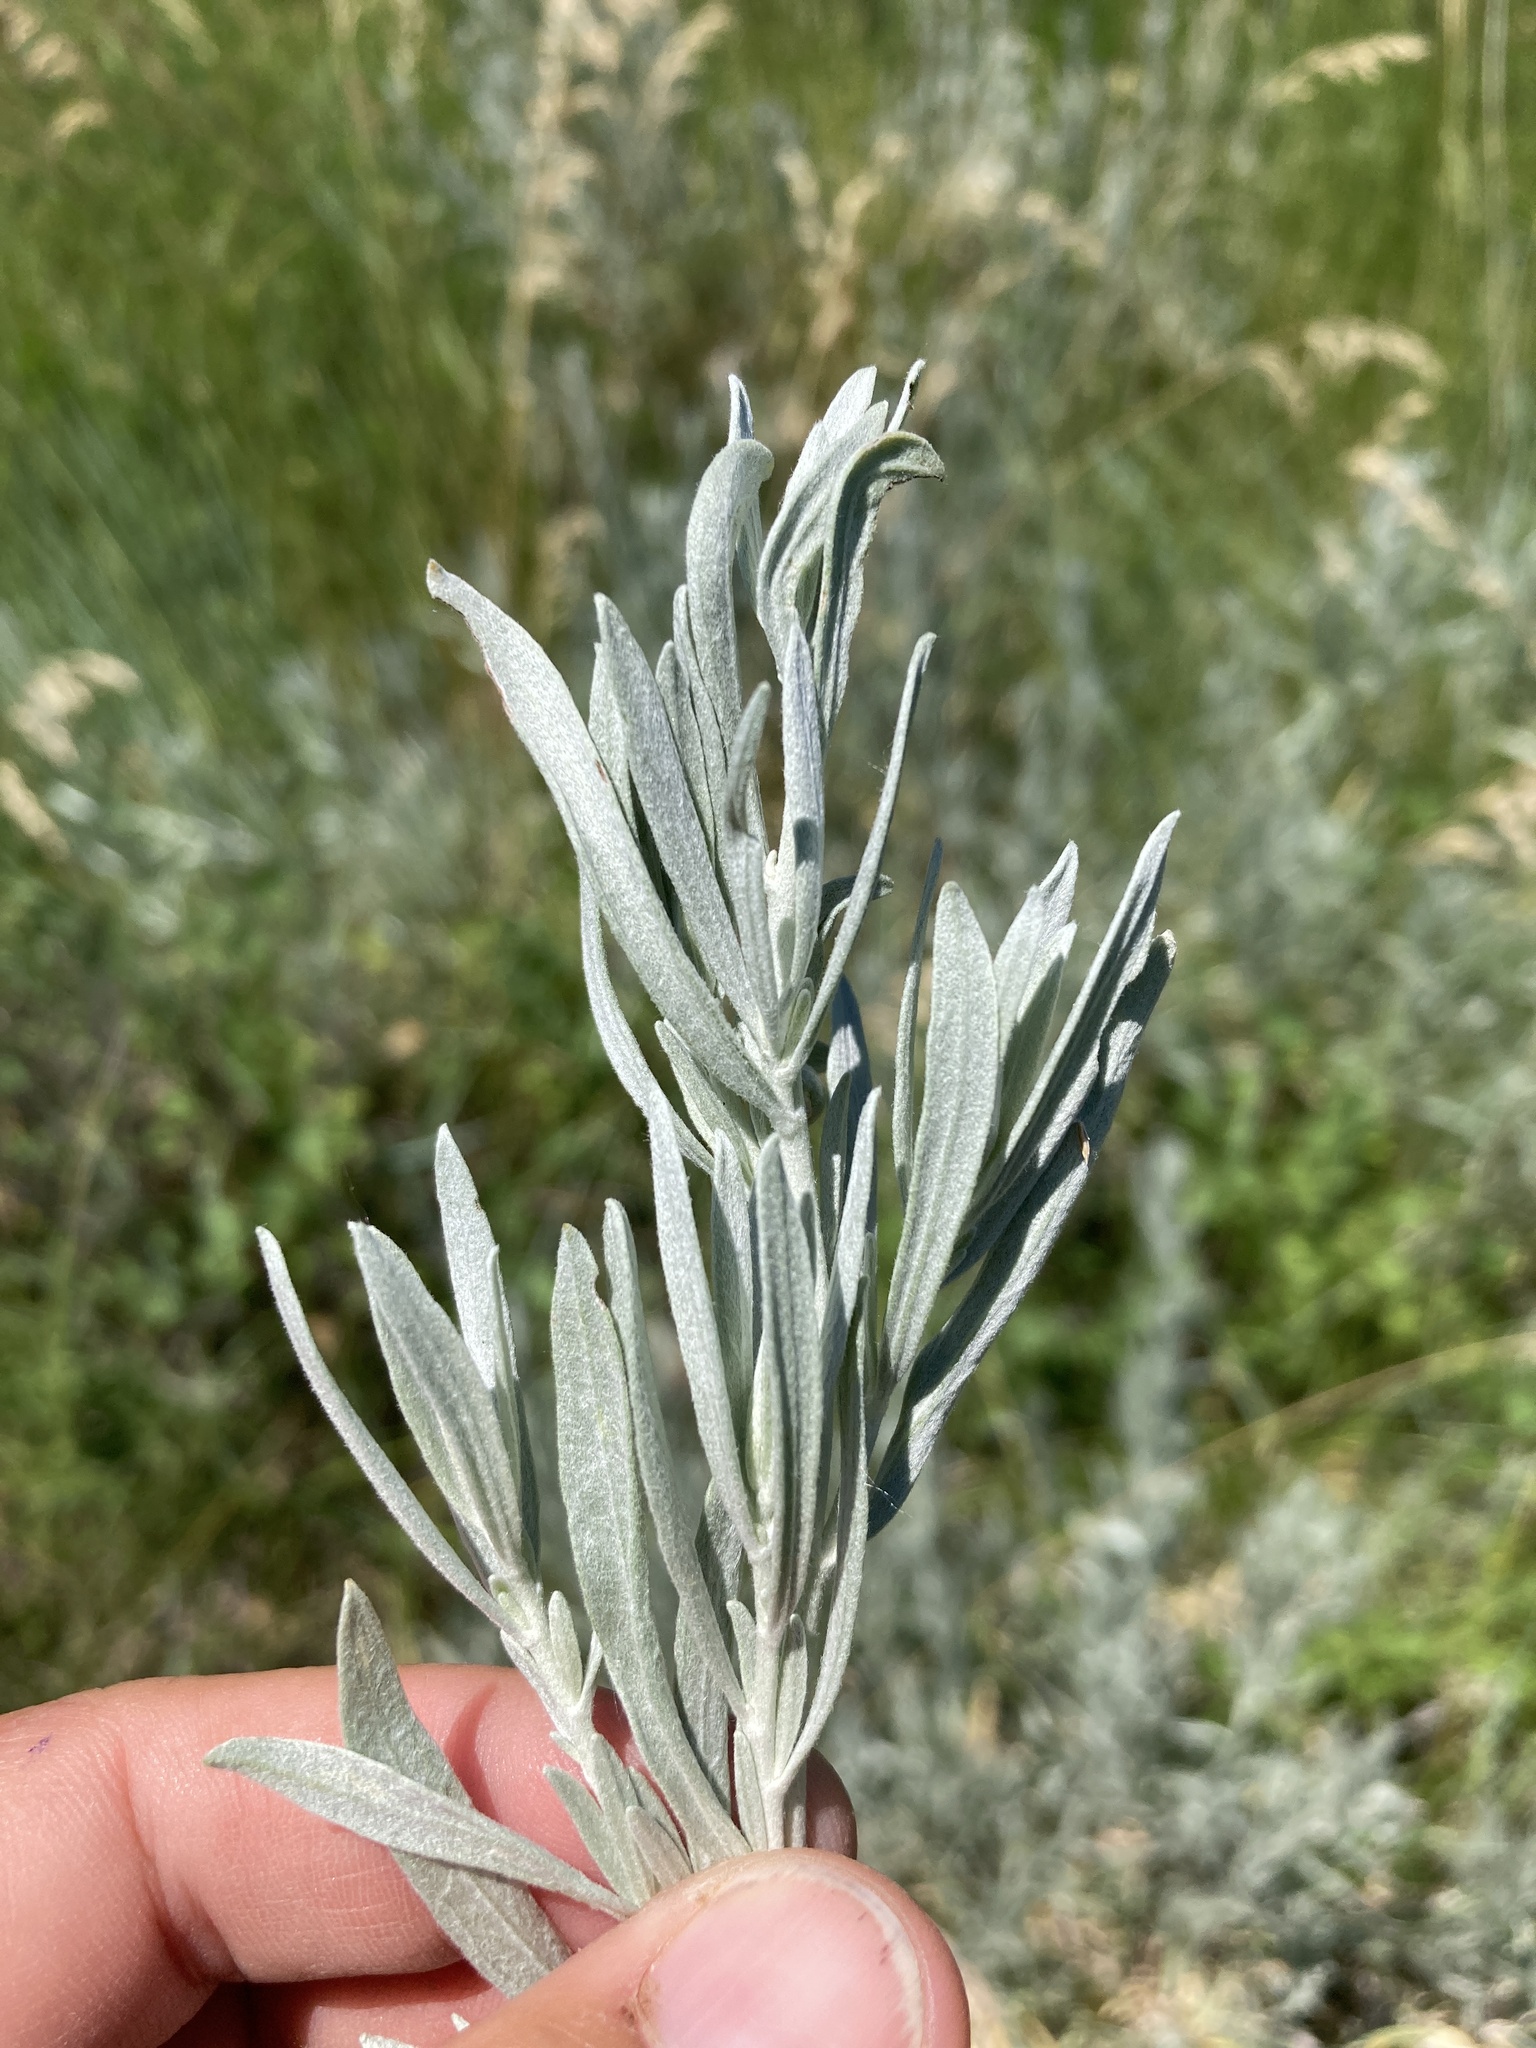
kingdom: Plantae
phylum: Tracheophyta
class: Magnoliopsida
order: Asterales
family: Asteraceae
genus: Artemisia
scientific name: Artemisia cana
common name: Silver sagebrush
